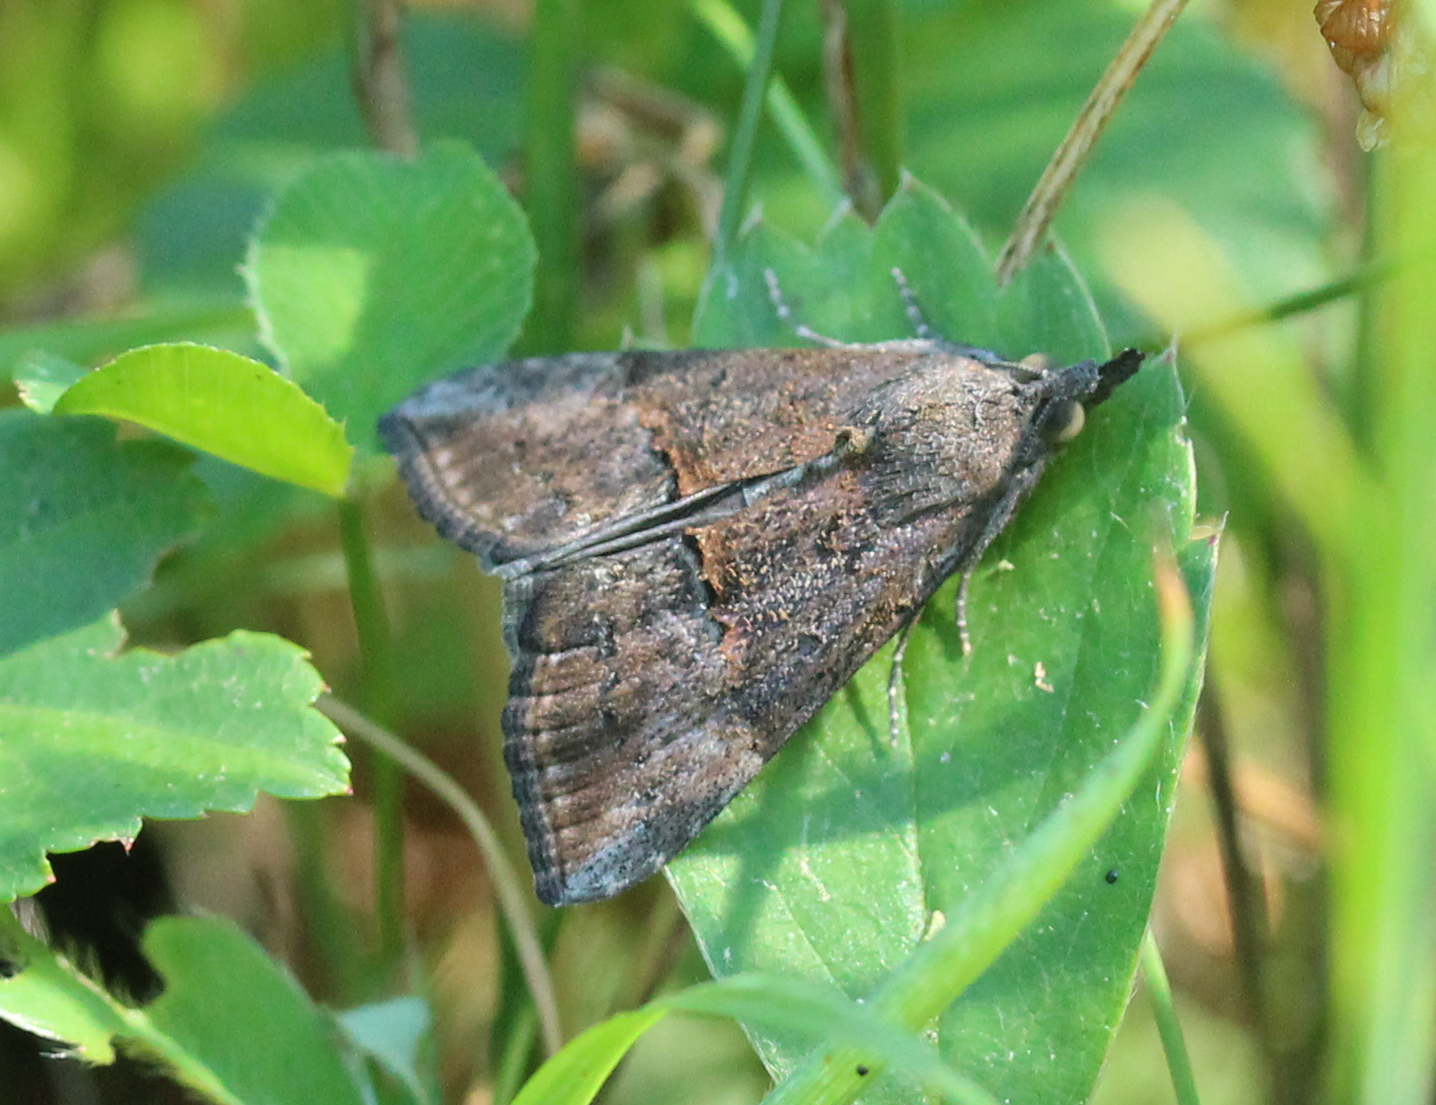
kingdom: Animalia
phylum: Arthropoda
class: Insecta
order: Lepidoptera
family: Erebidae
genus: Hypena
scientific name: Hypena scabra
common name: Green cloverworm
